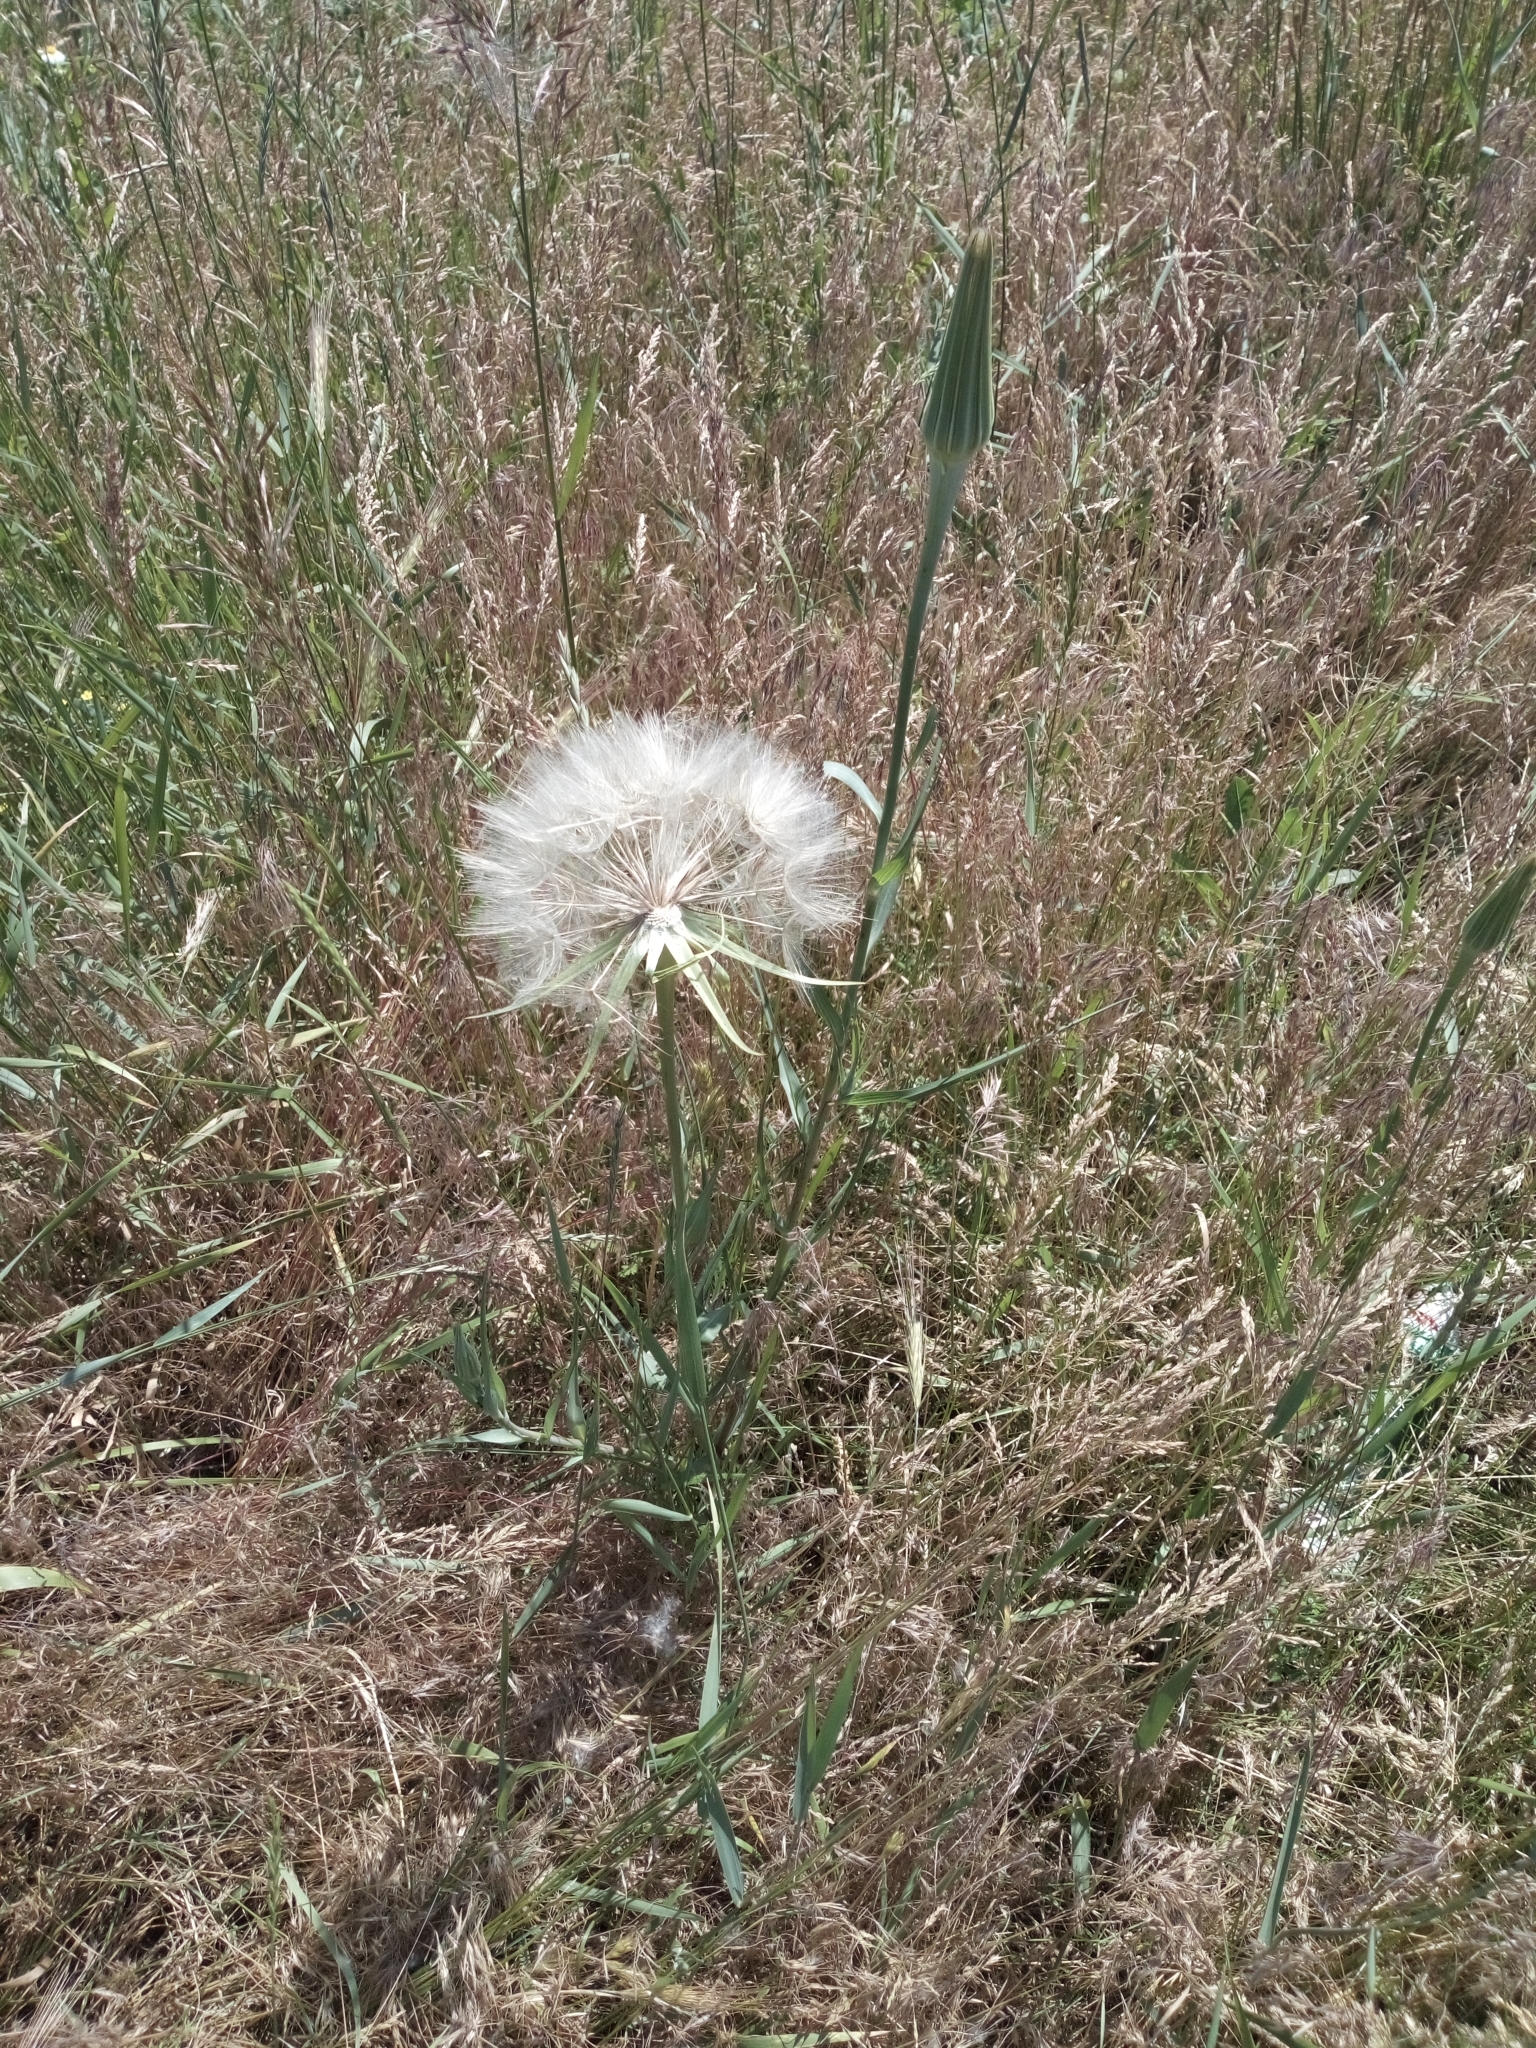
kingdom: Plantae
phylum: Tracheophyta
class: Magnoliopsida
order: Asterales
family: Asteraceae
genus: Tragopogon
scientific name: Tragopogon dubius
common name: Yellow salsify
